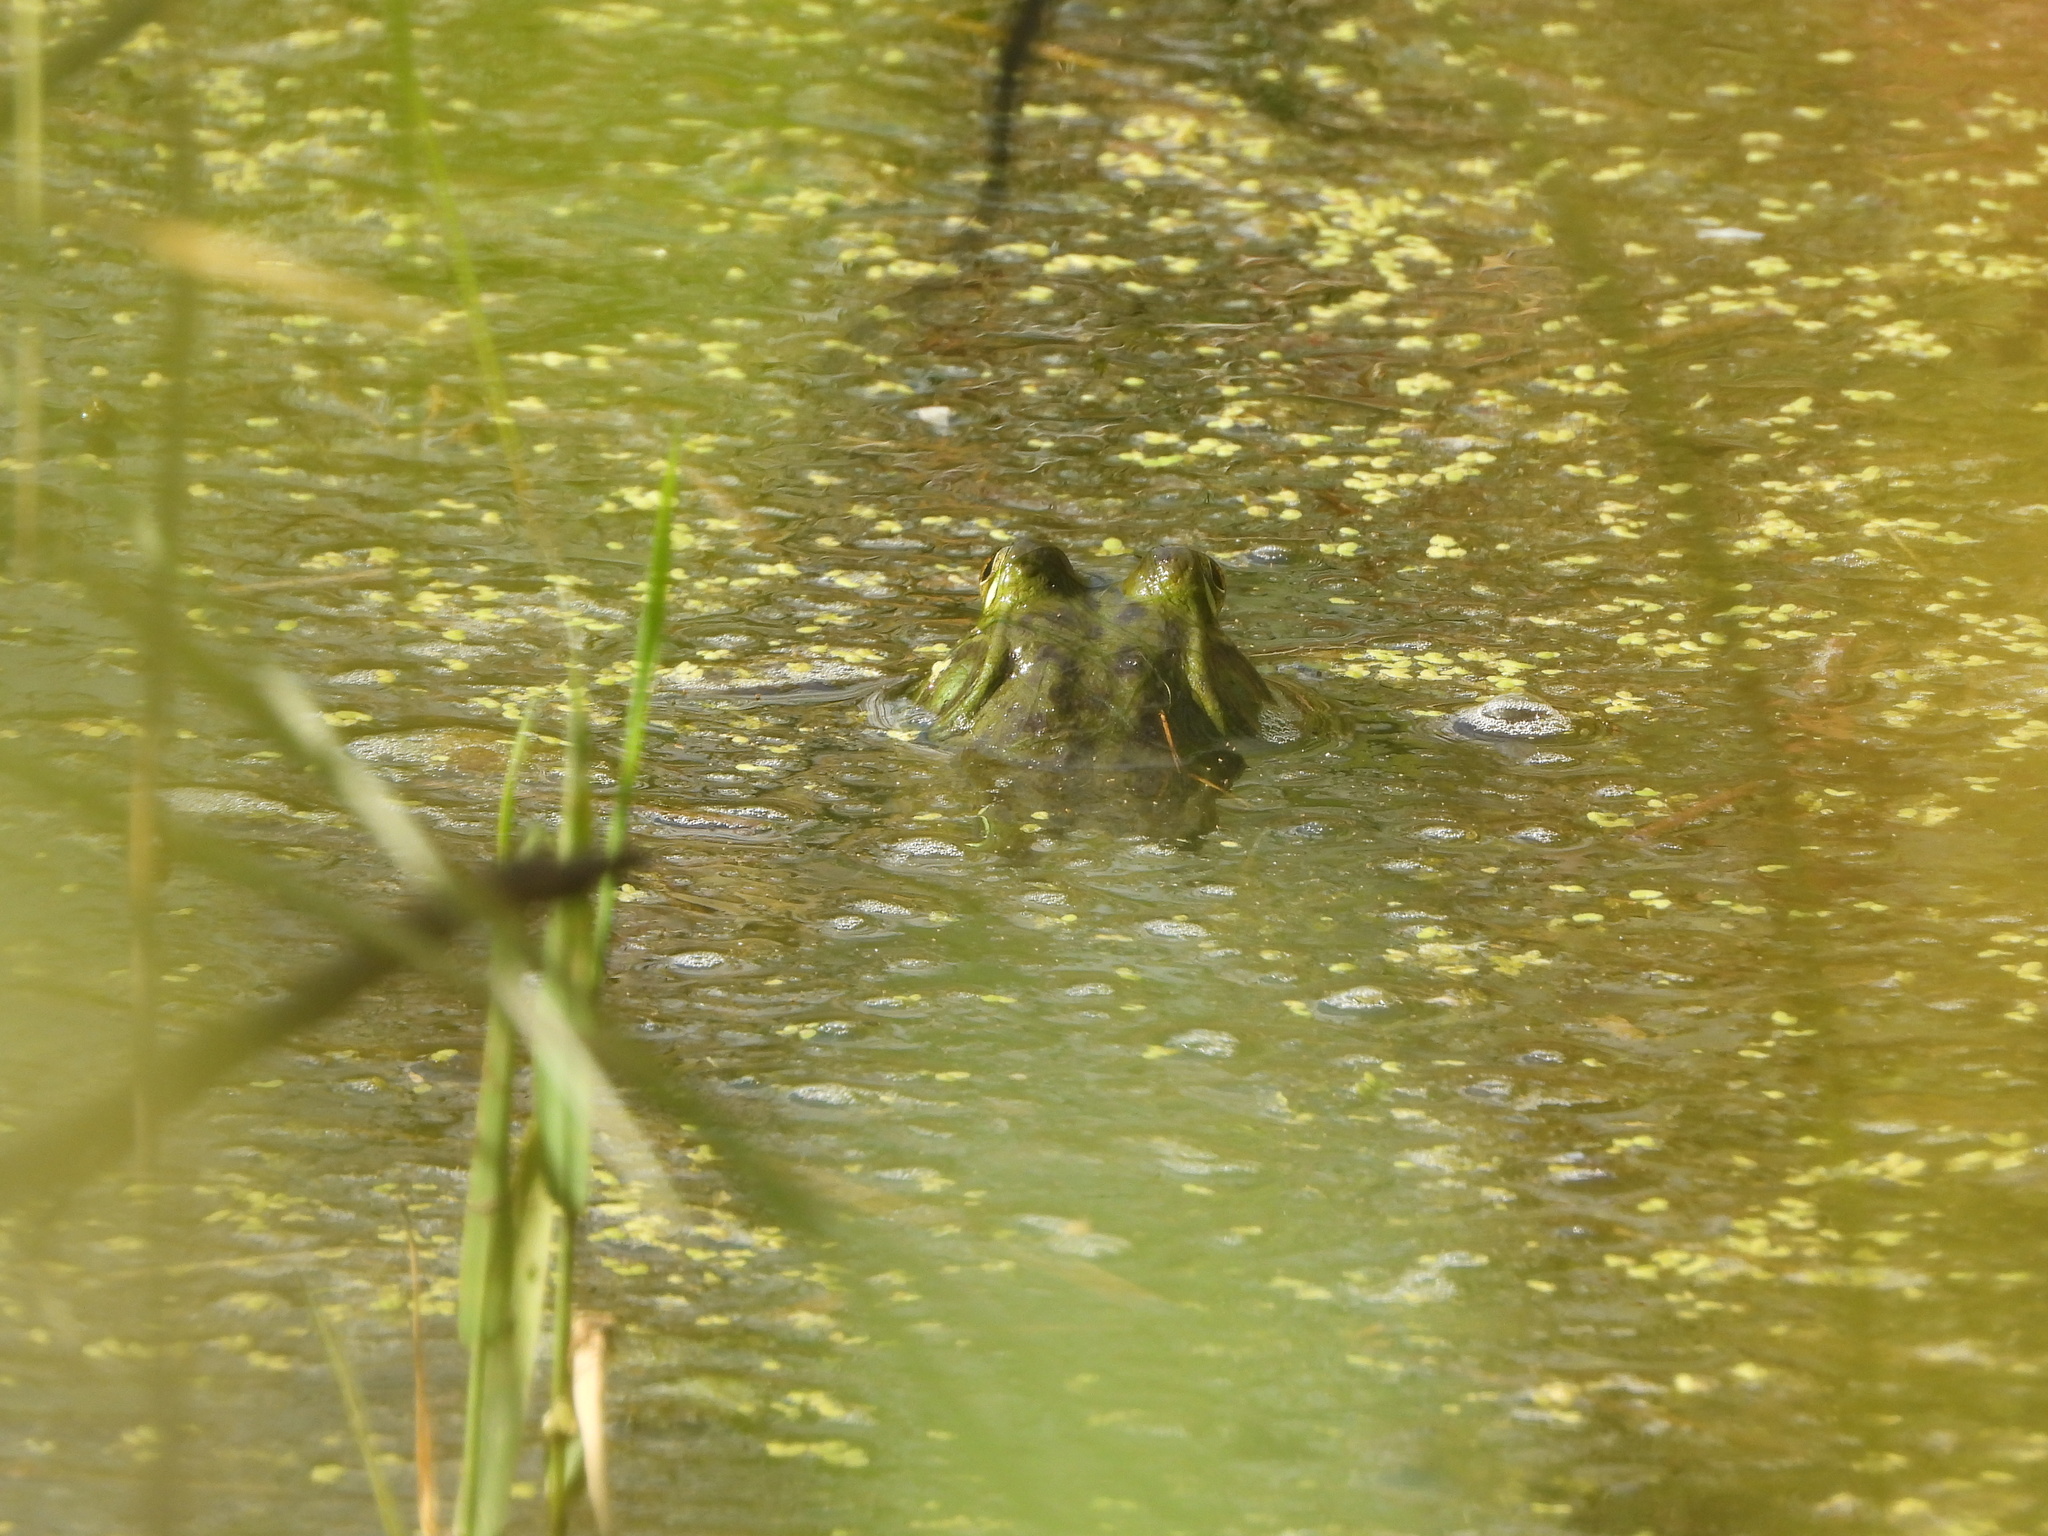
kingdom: Animalia
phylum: Chordata
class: Amphibia
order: Anura
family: Ranidae
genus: Lithobates
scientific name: Lithobates catesbeianus
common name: American bullfrog
